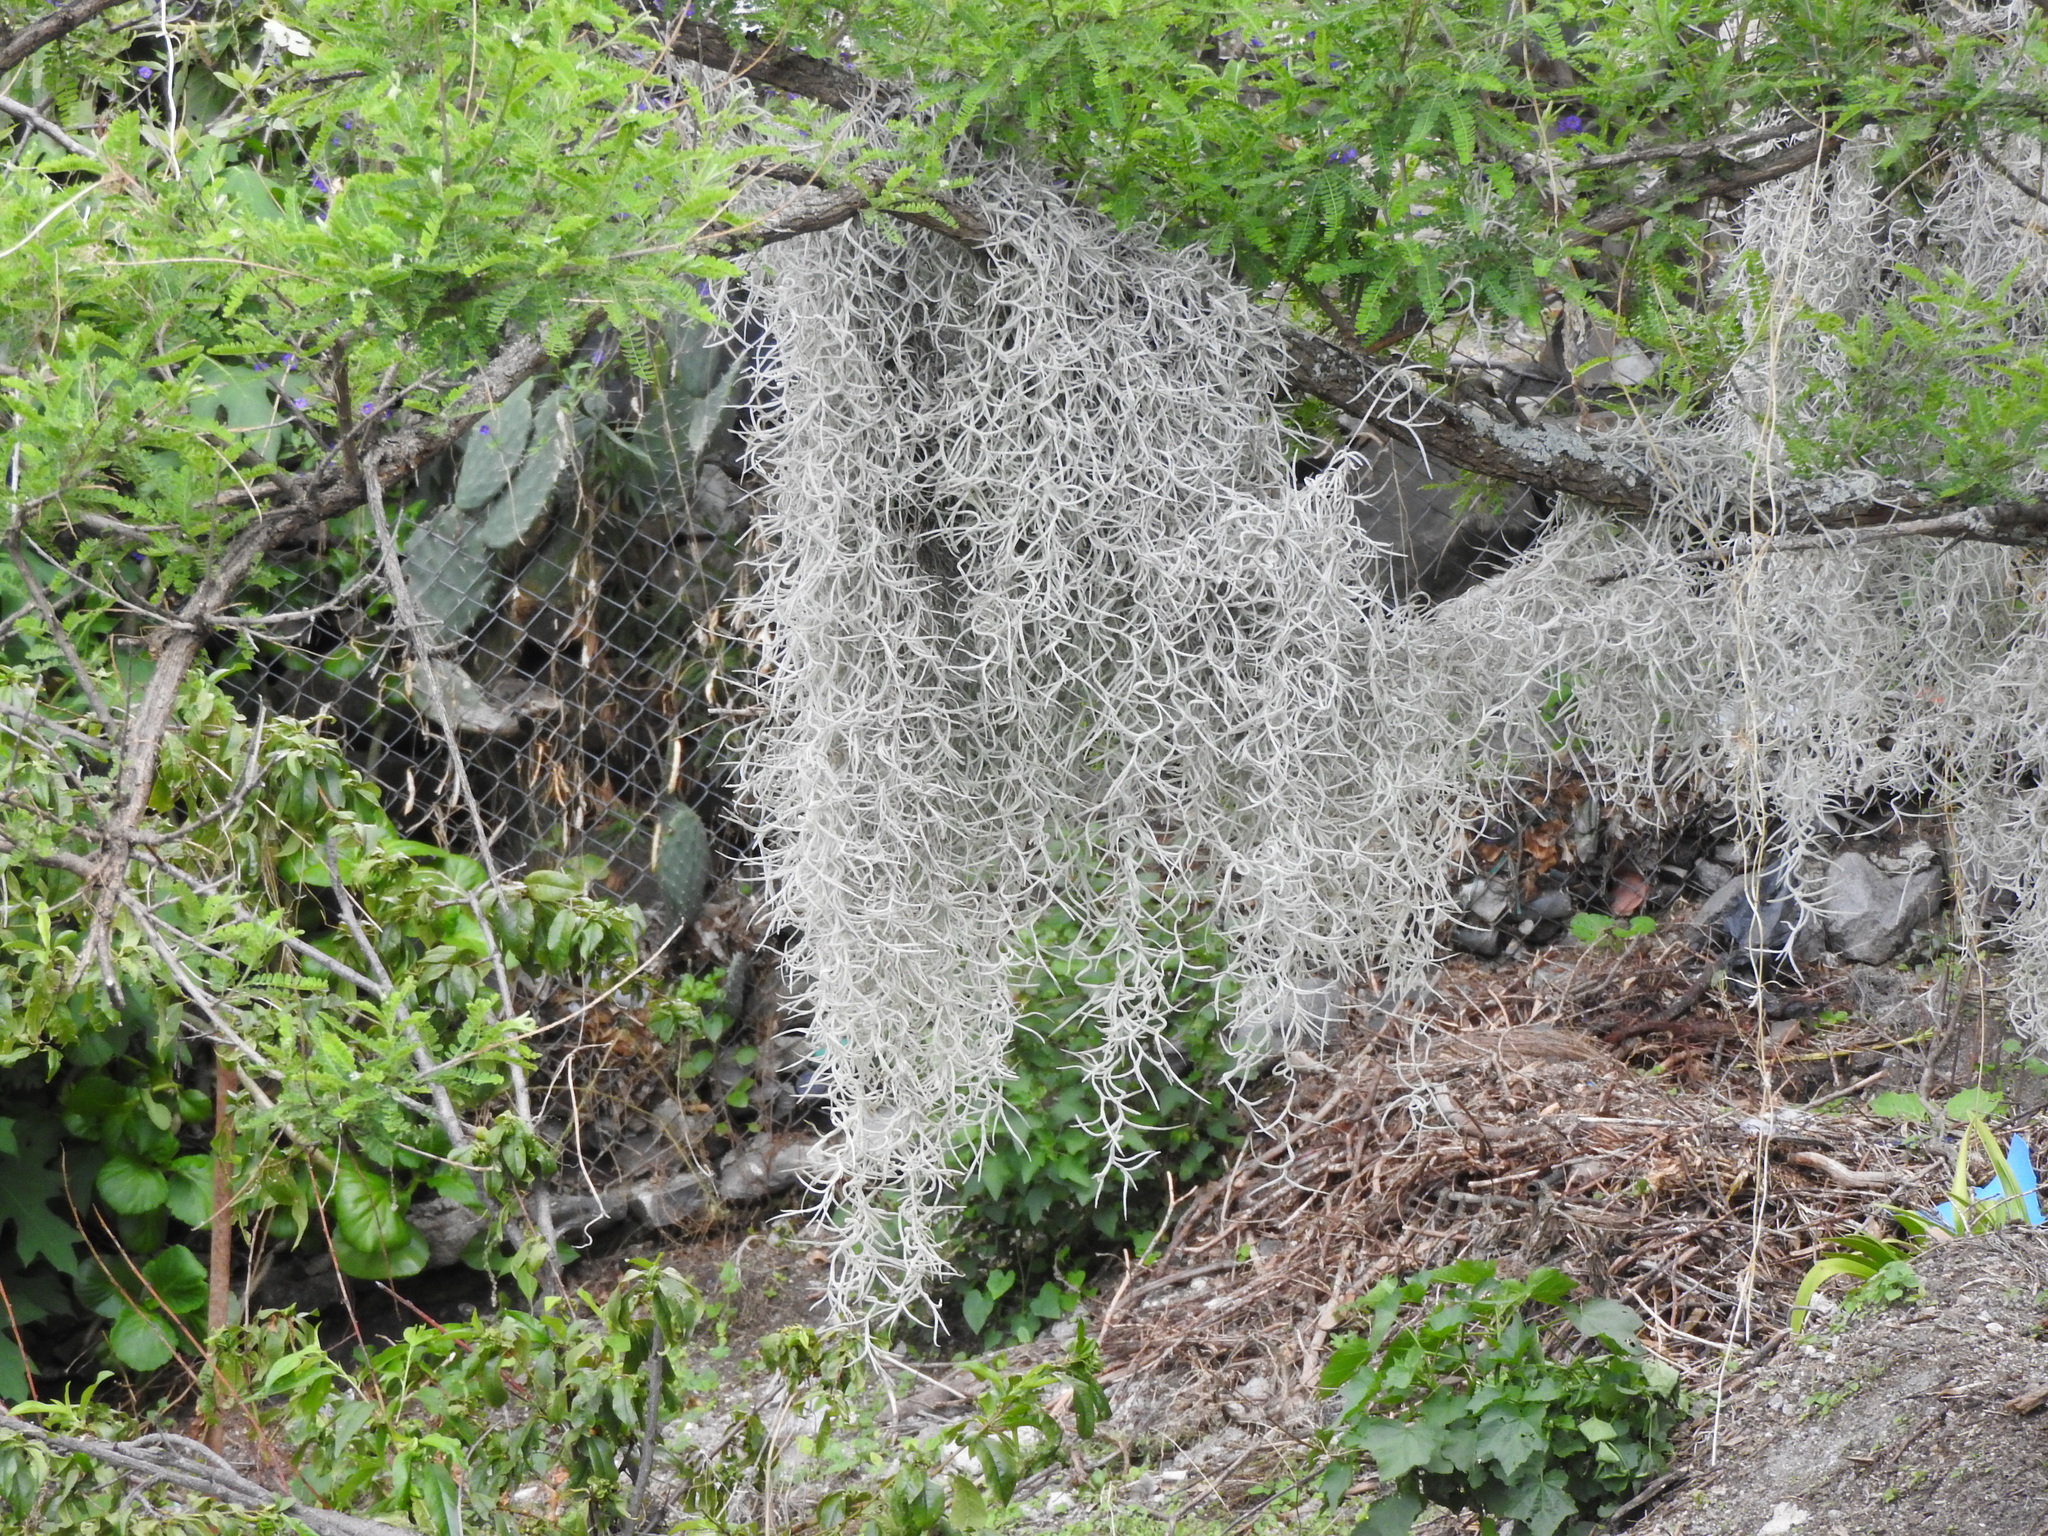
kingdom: Plantae
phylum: Tracheophyta
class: Liliopsida
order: Poales
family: Bromeliaceae
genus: Tillandsia
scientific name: Tillandsia usneoides
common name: Spanish moss
